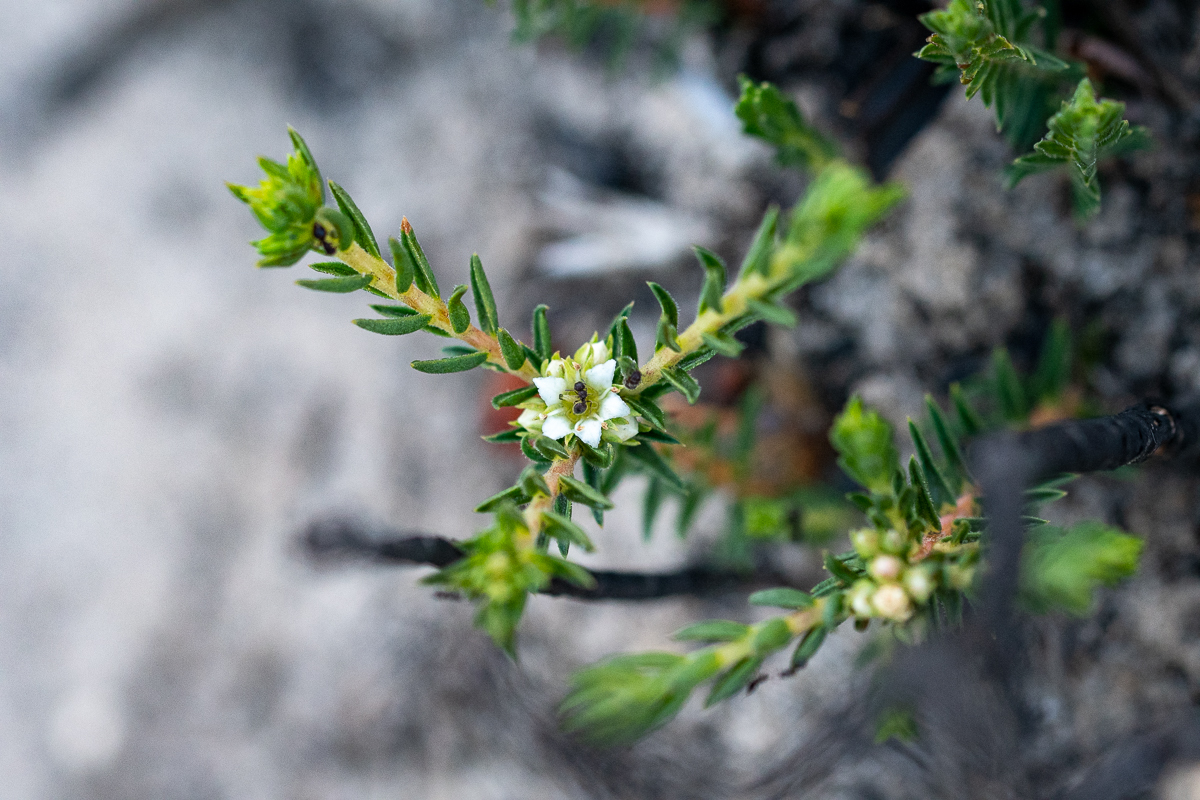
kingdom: Plantae
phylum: Tracheophyta
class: Magnoliopsida
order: Sapindales
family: Rutaceae
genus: Diosma
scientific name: Diosma oppositifolia
